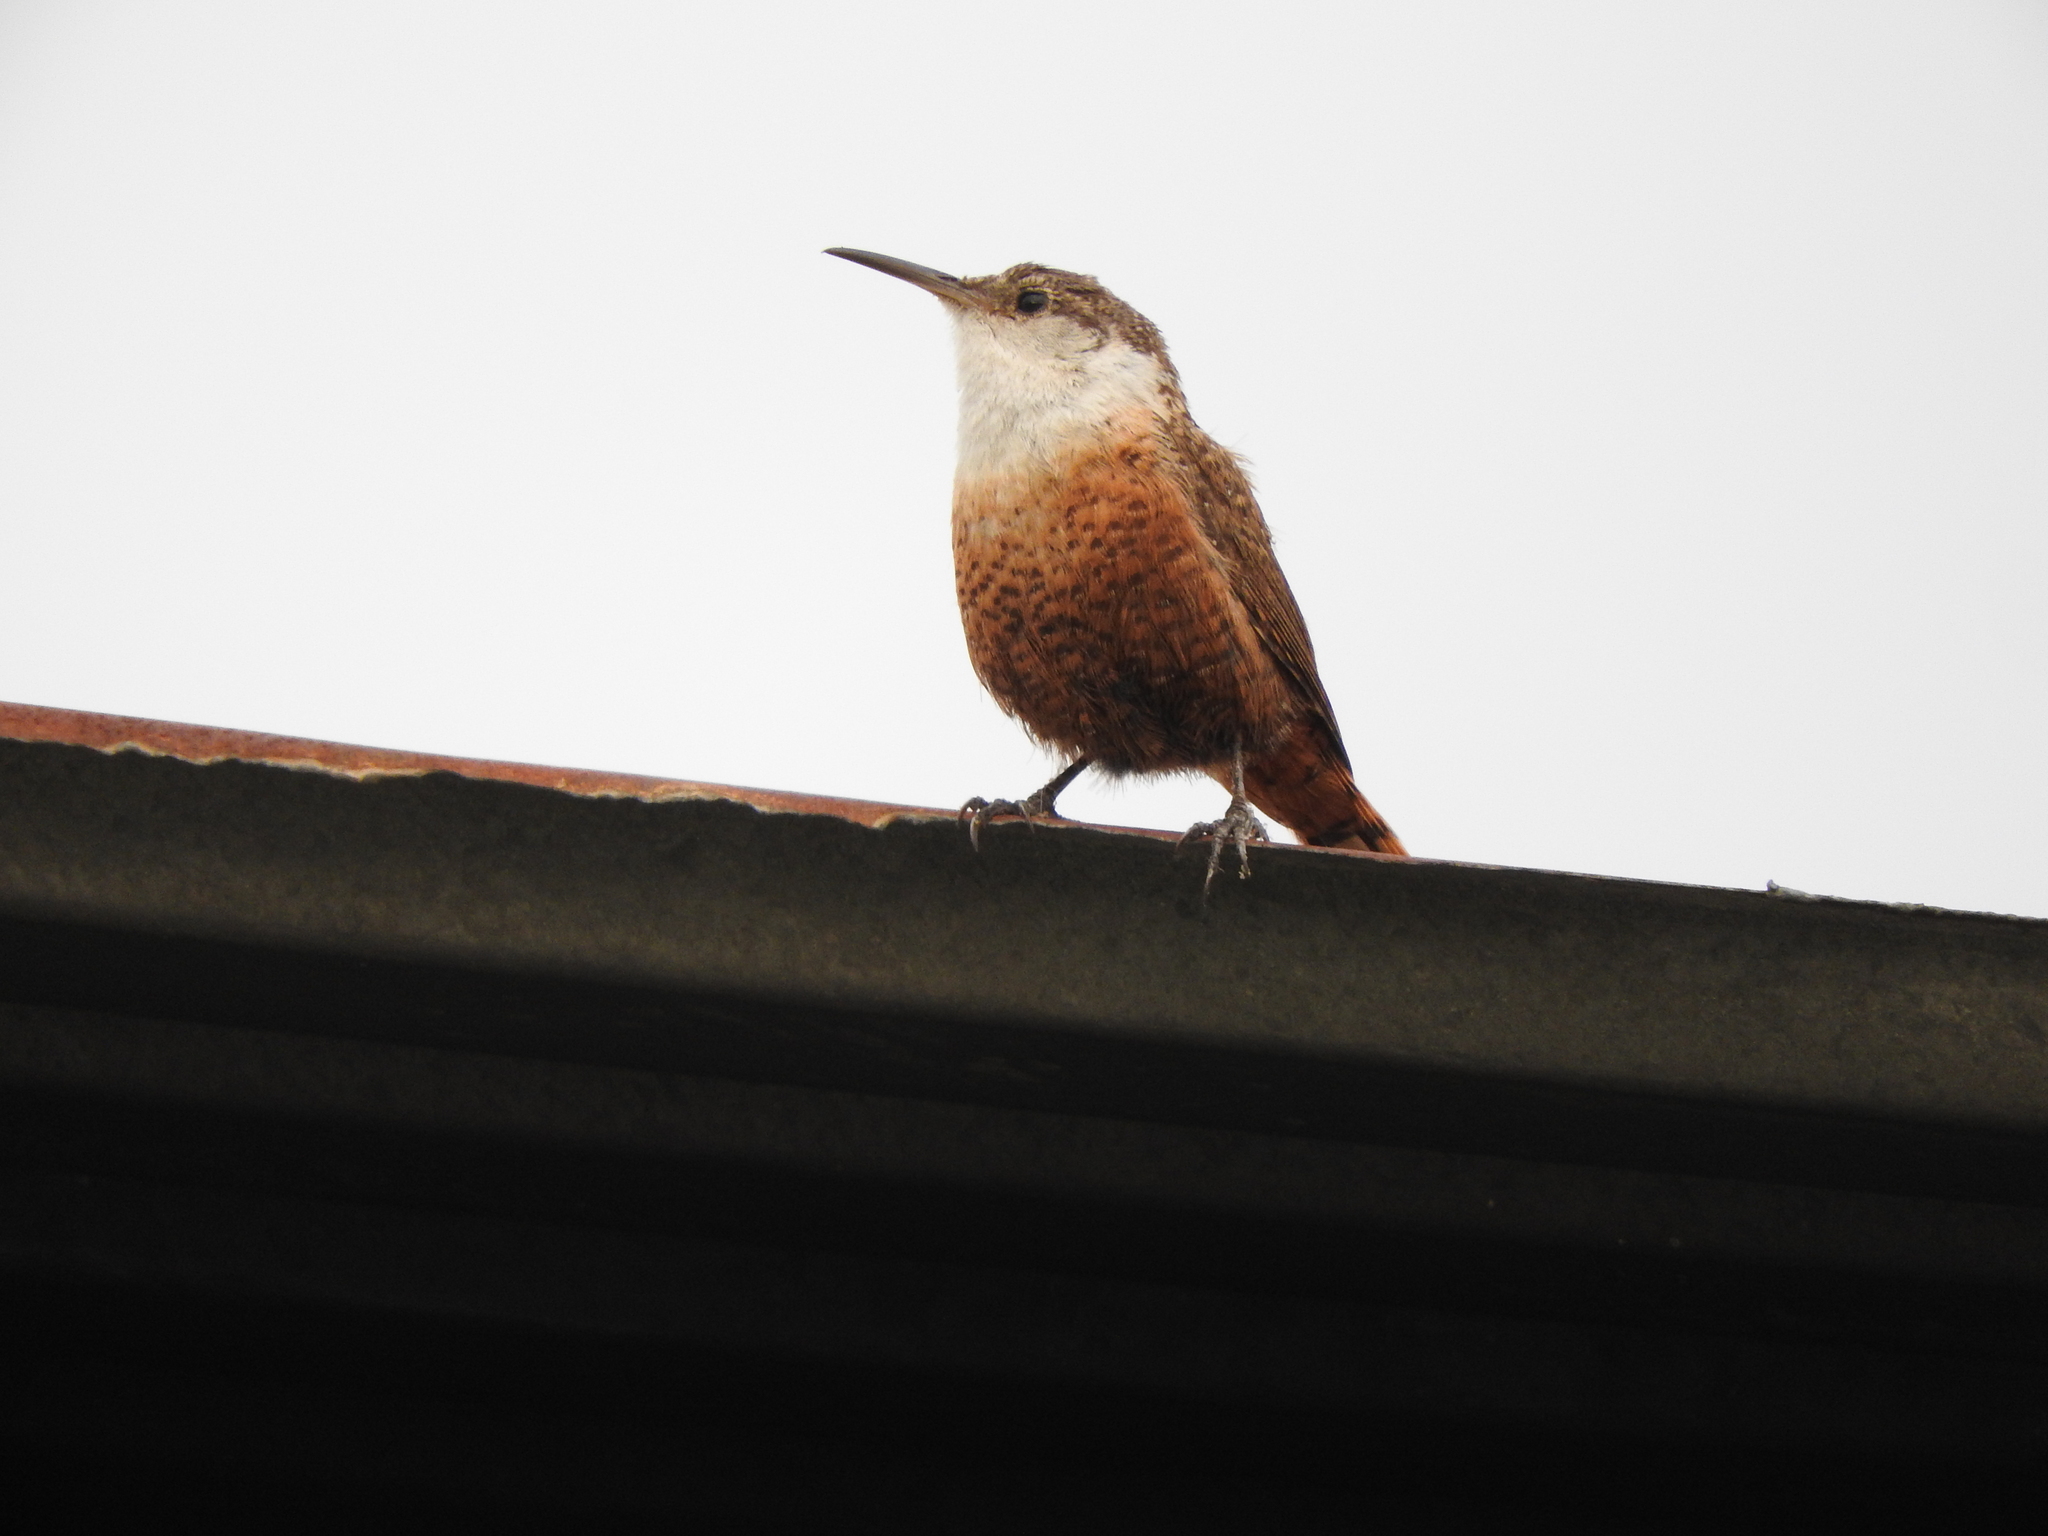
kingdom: Animalia
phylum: Chordata
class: Aves
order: Passeriformes
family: Troglodytidae
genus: Catherpes
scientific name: Catherpes mexicanus
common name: Canyon wren
